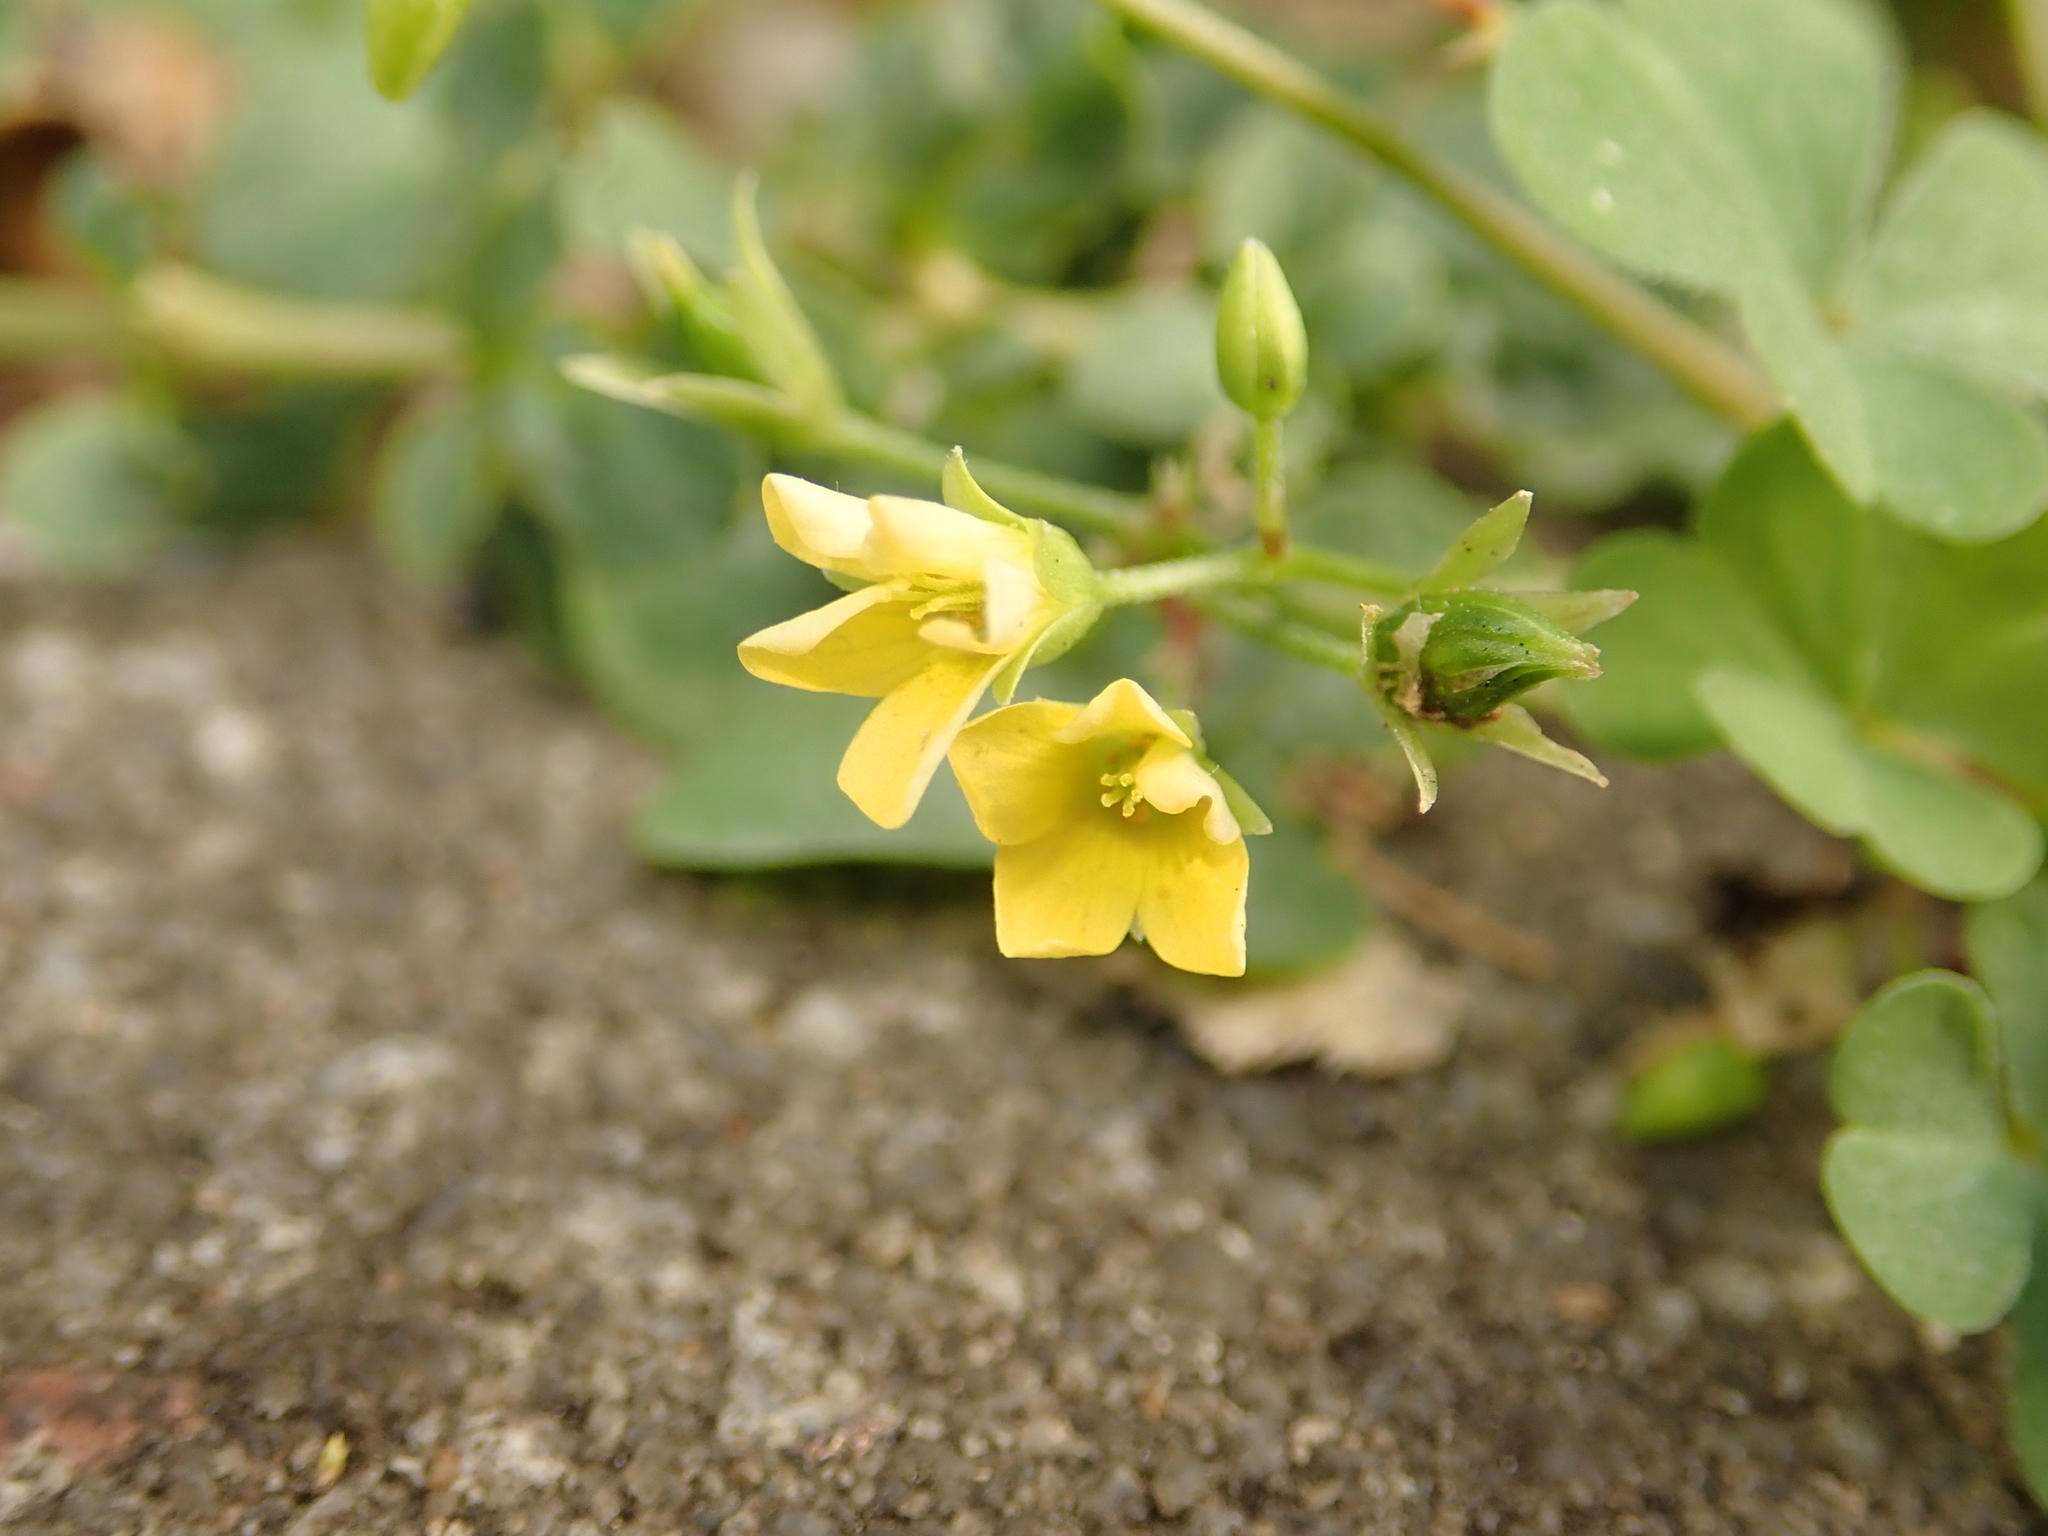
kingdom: Plantae
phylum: Tracheophyta
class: Magnoliopsida
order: Oxalidales
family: Oxalidaceae
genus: Oxalis
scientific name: Oxalis corniculata
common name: Procumbent yellow-sorrel
